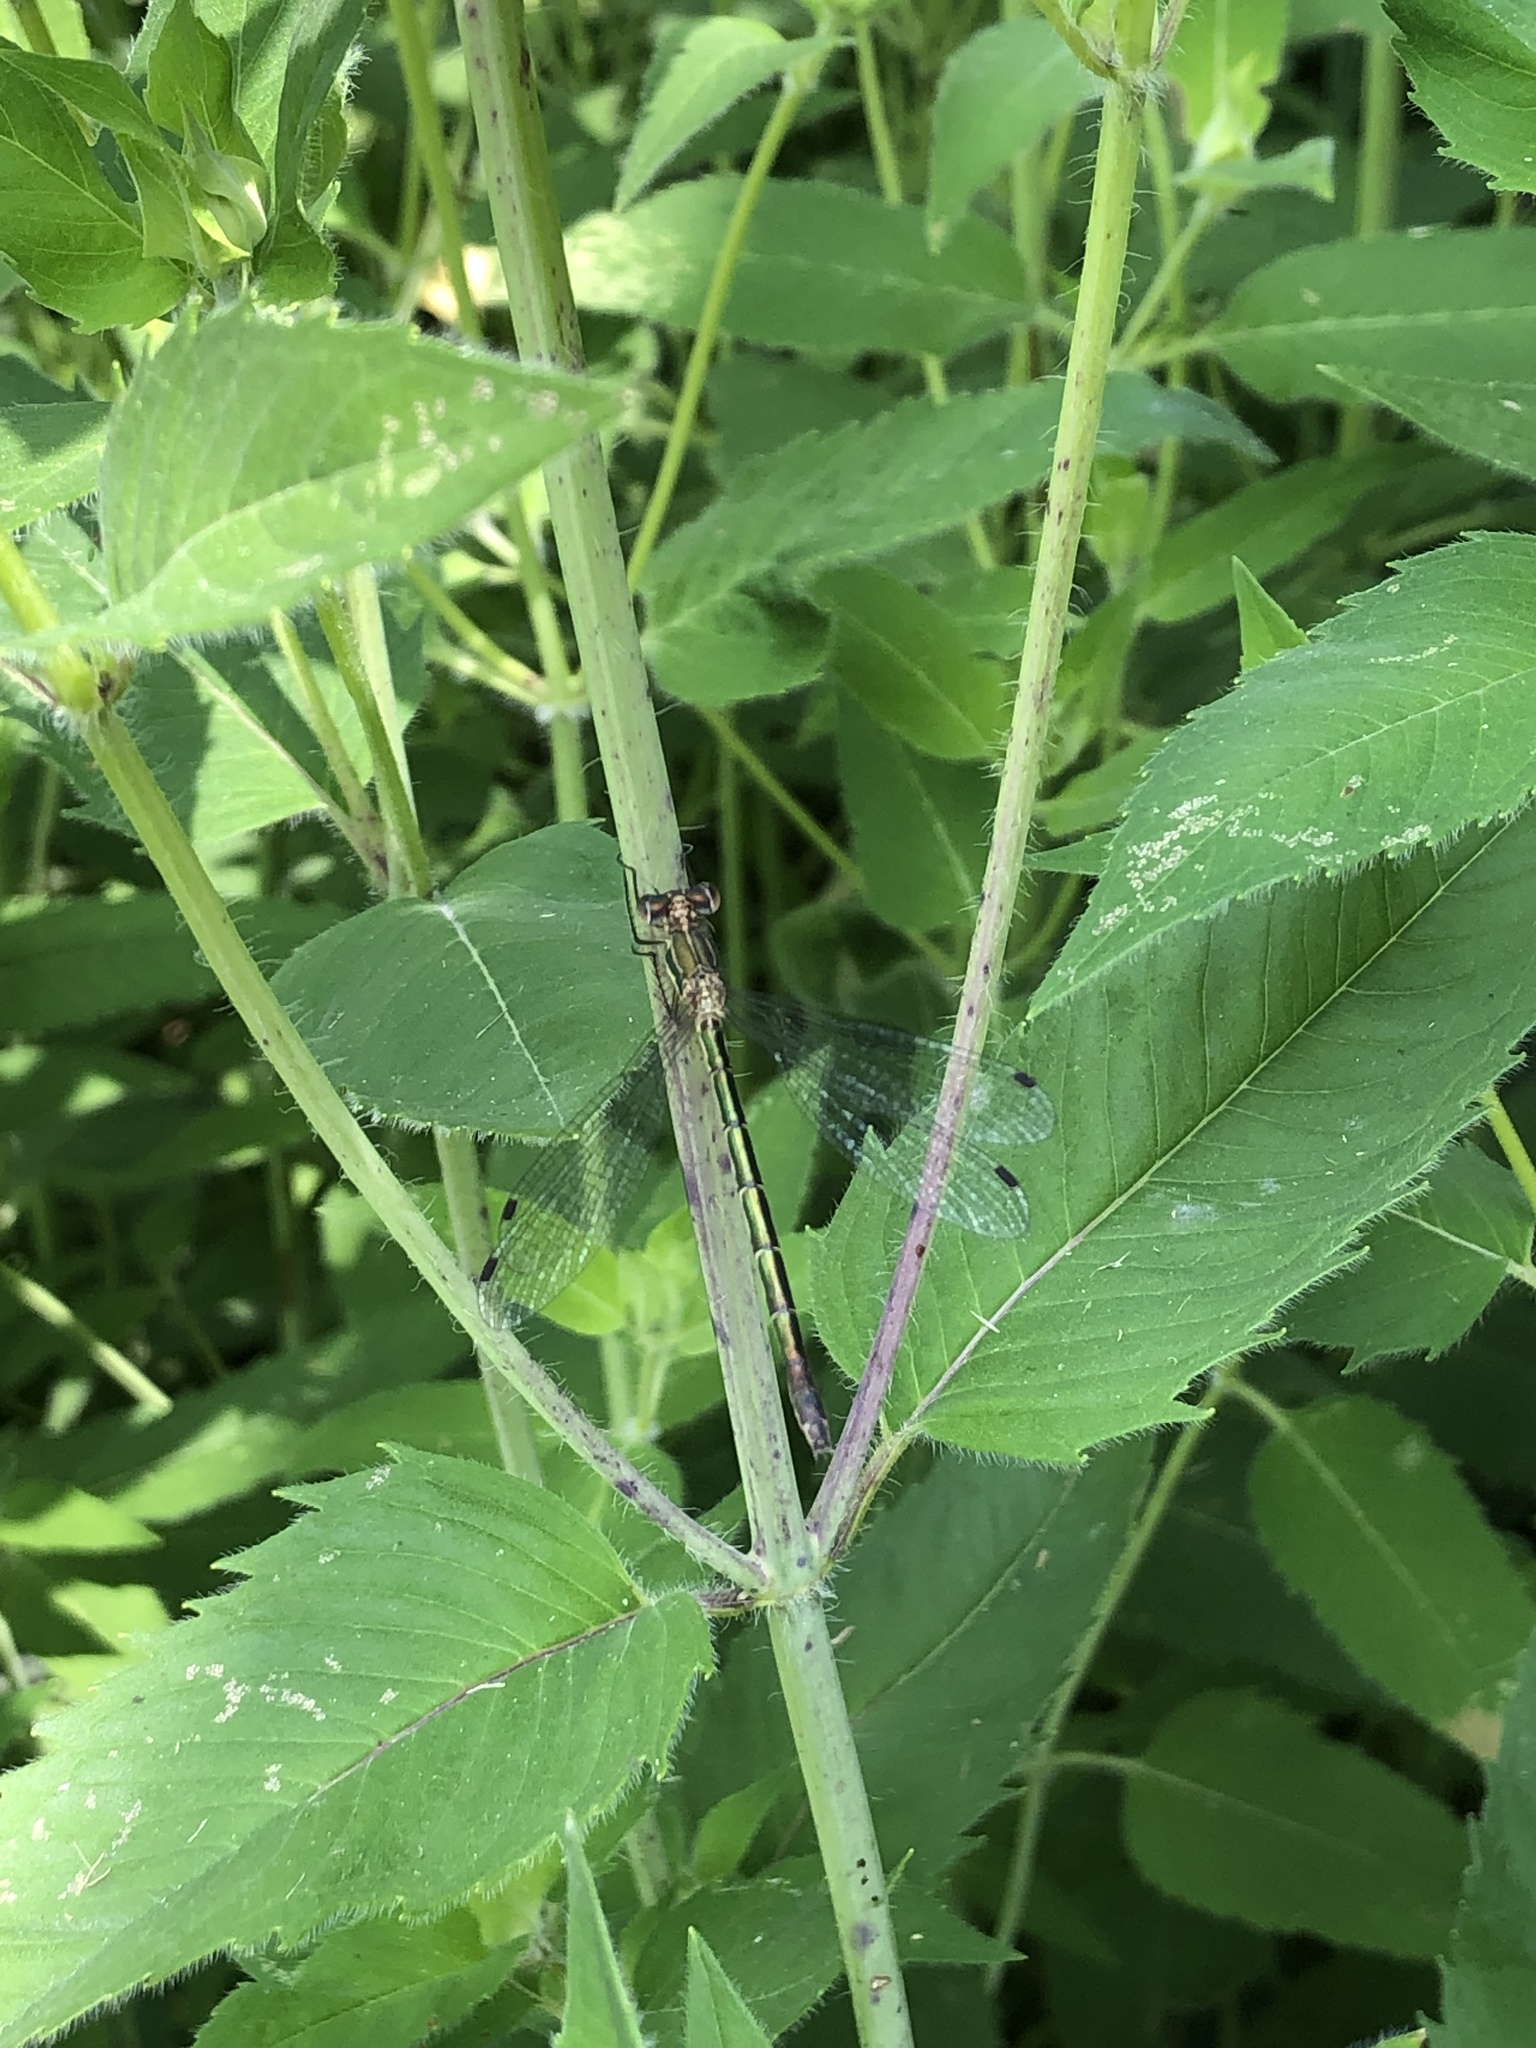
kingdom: Animalia
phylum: Arthropoda
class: Insecta
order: Odonata
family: Lestidae
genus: Lestes
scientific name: Lestes dryas
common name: Scarce emerald damselfly
